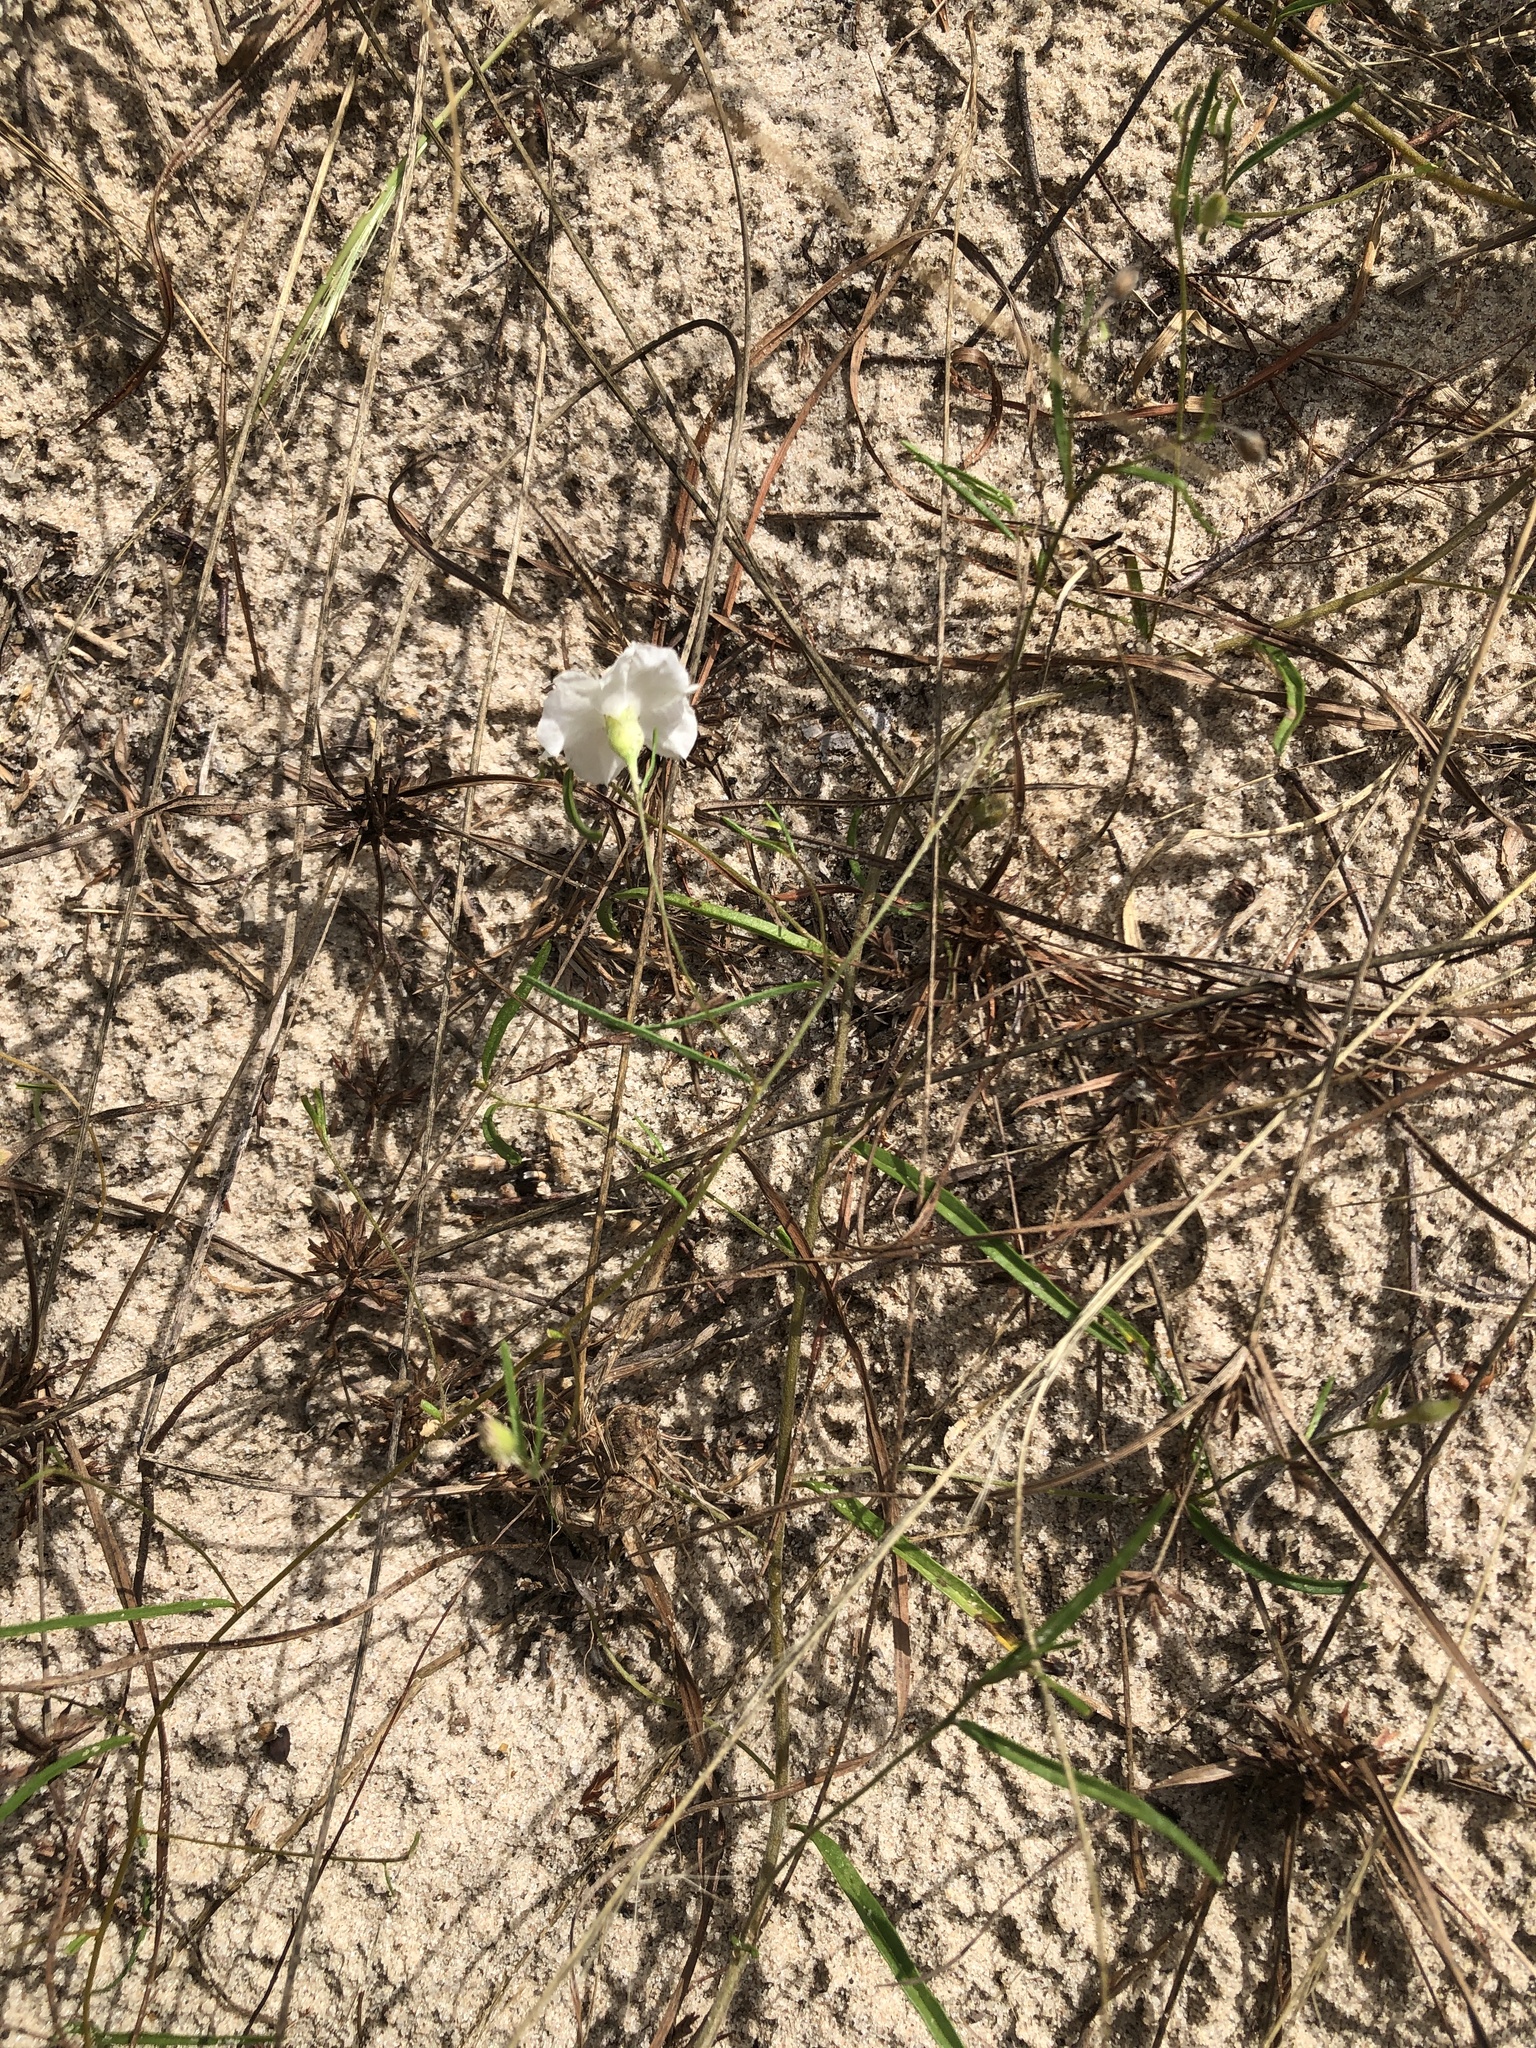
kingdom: Plantae
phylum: Tracheophyta
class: Magnoliopsida
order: Solanales
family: Convolvulaceae
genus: Stylisma
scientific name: Stylisma pickeringii
